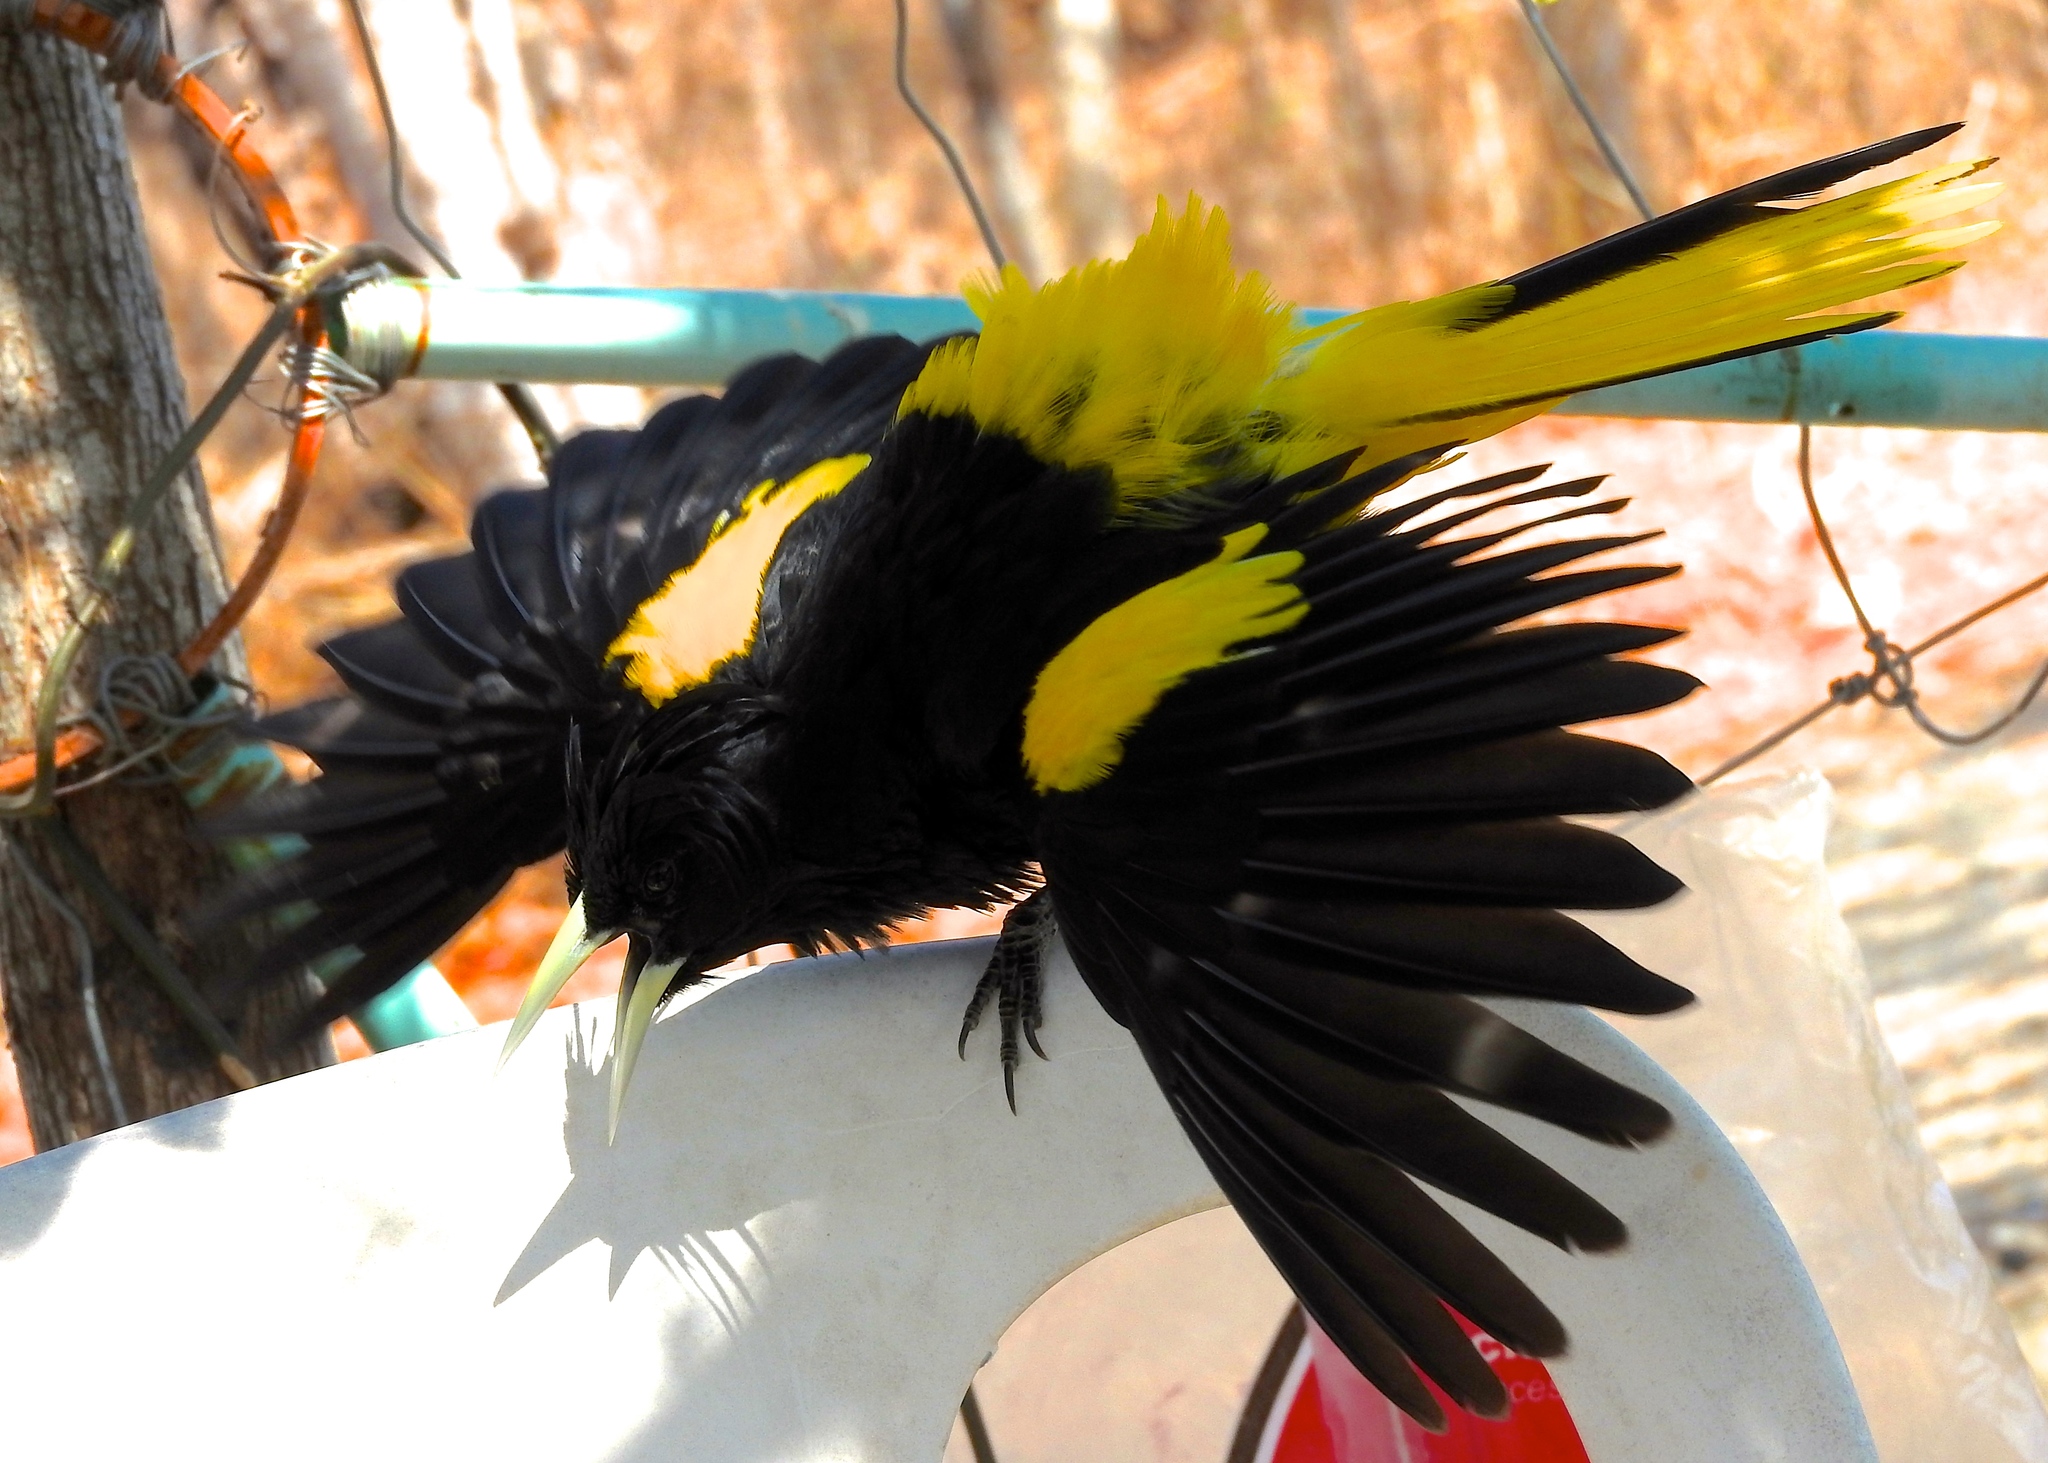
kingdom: Animalia
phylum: Chordata
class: Aves
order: Passeriformes
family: Icteridae
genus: Cacicus
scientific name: Cacicus melanicterus
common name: Yellow-winged cacique
